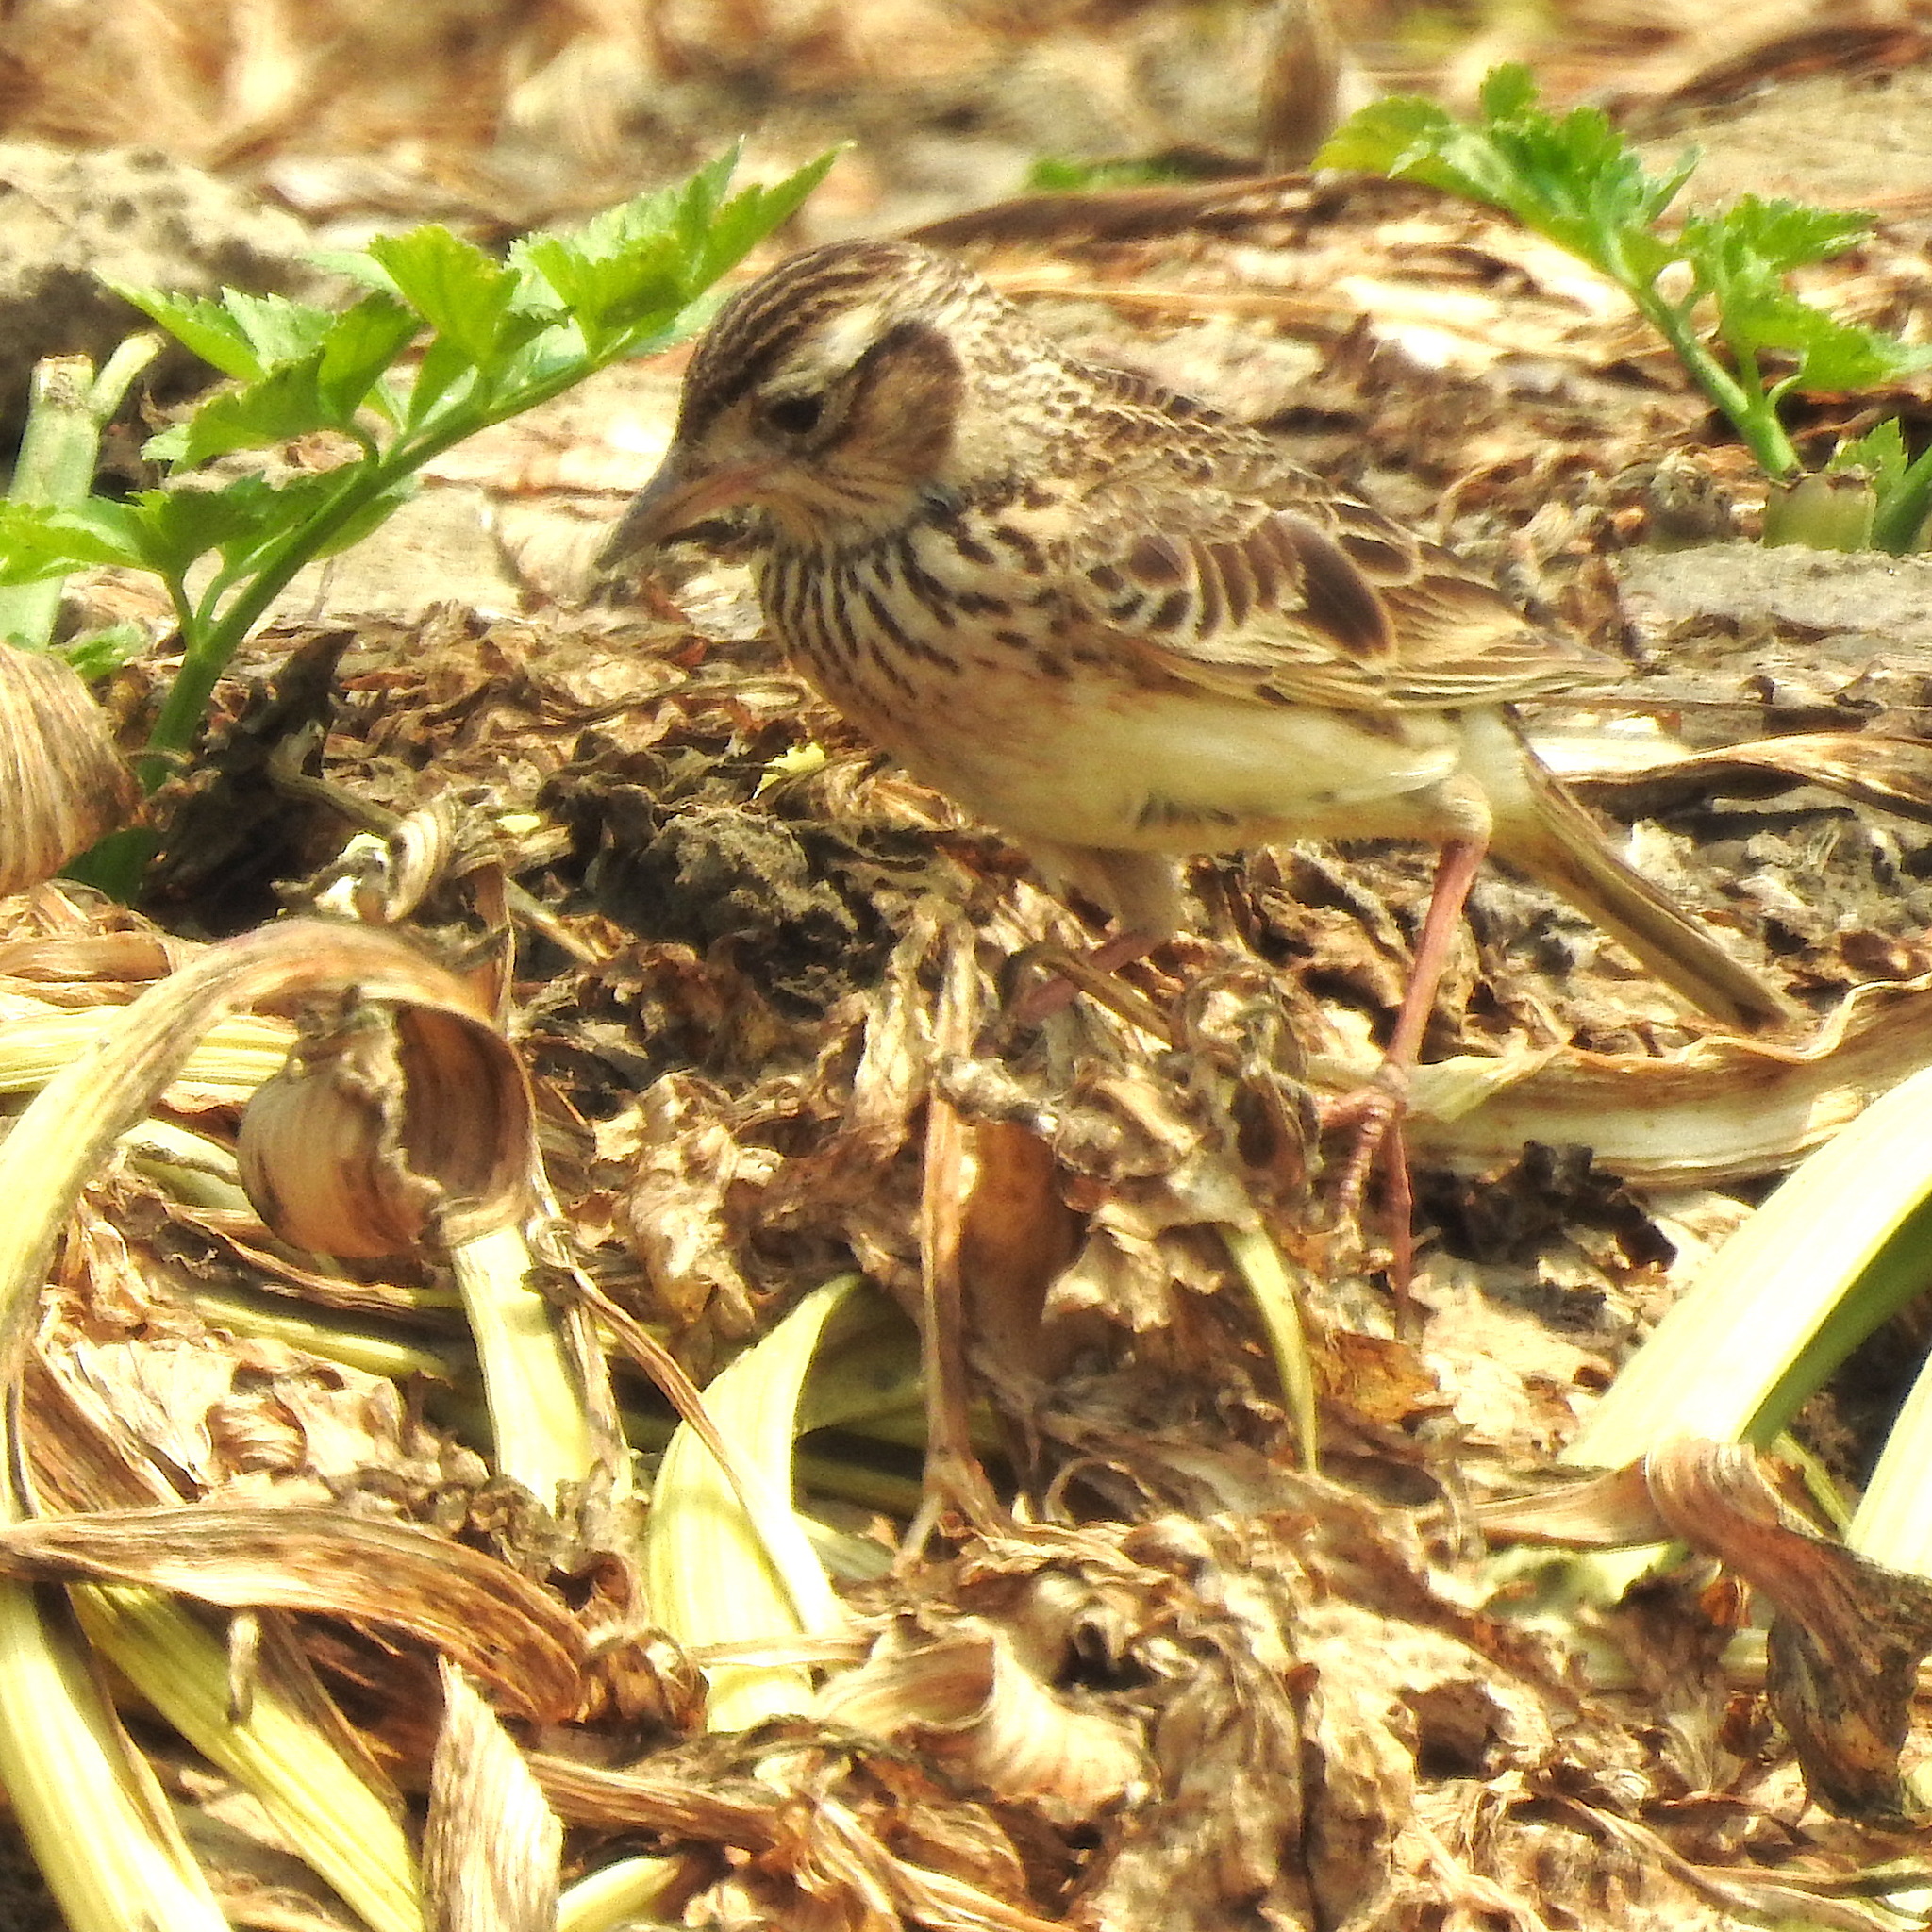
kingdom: Animalia
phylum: Chordata
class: Aves
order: Passeriformes
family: Alaudidae
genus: Alauda
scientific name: Alauda gulgula
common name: Oriental skylark
